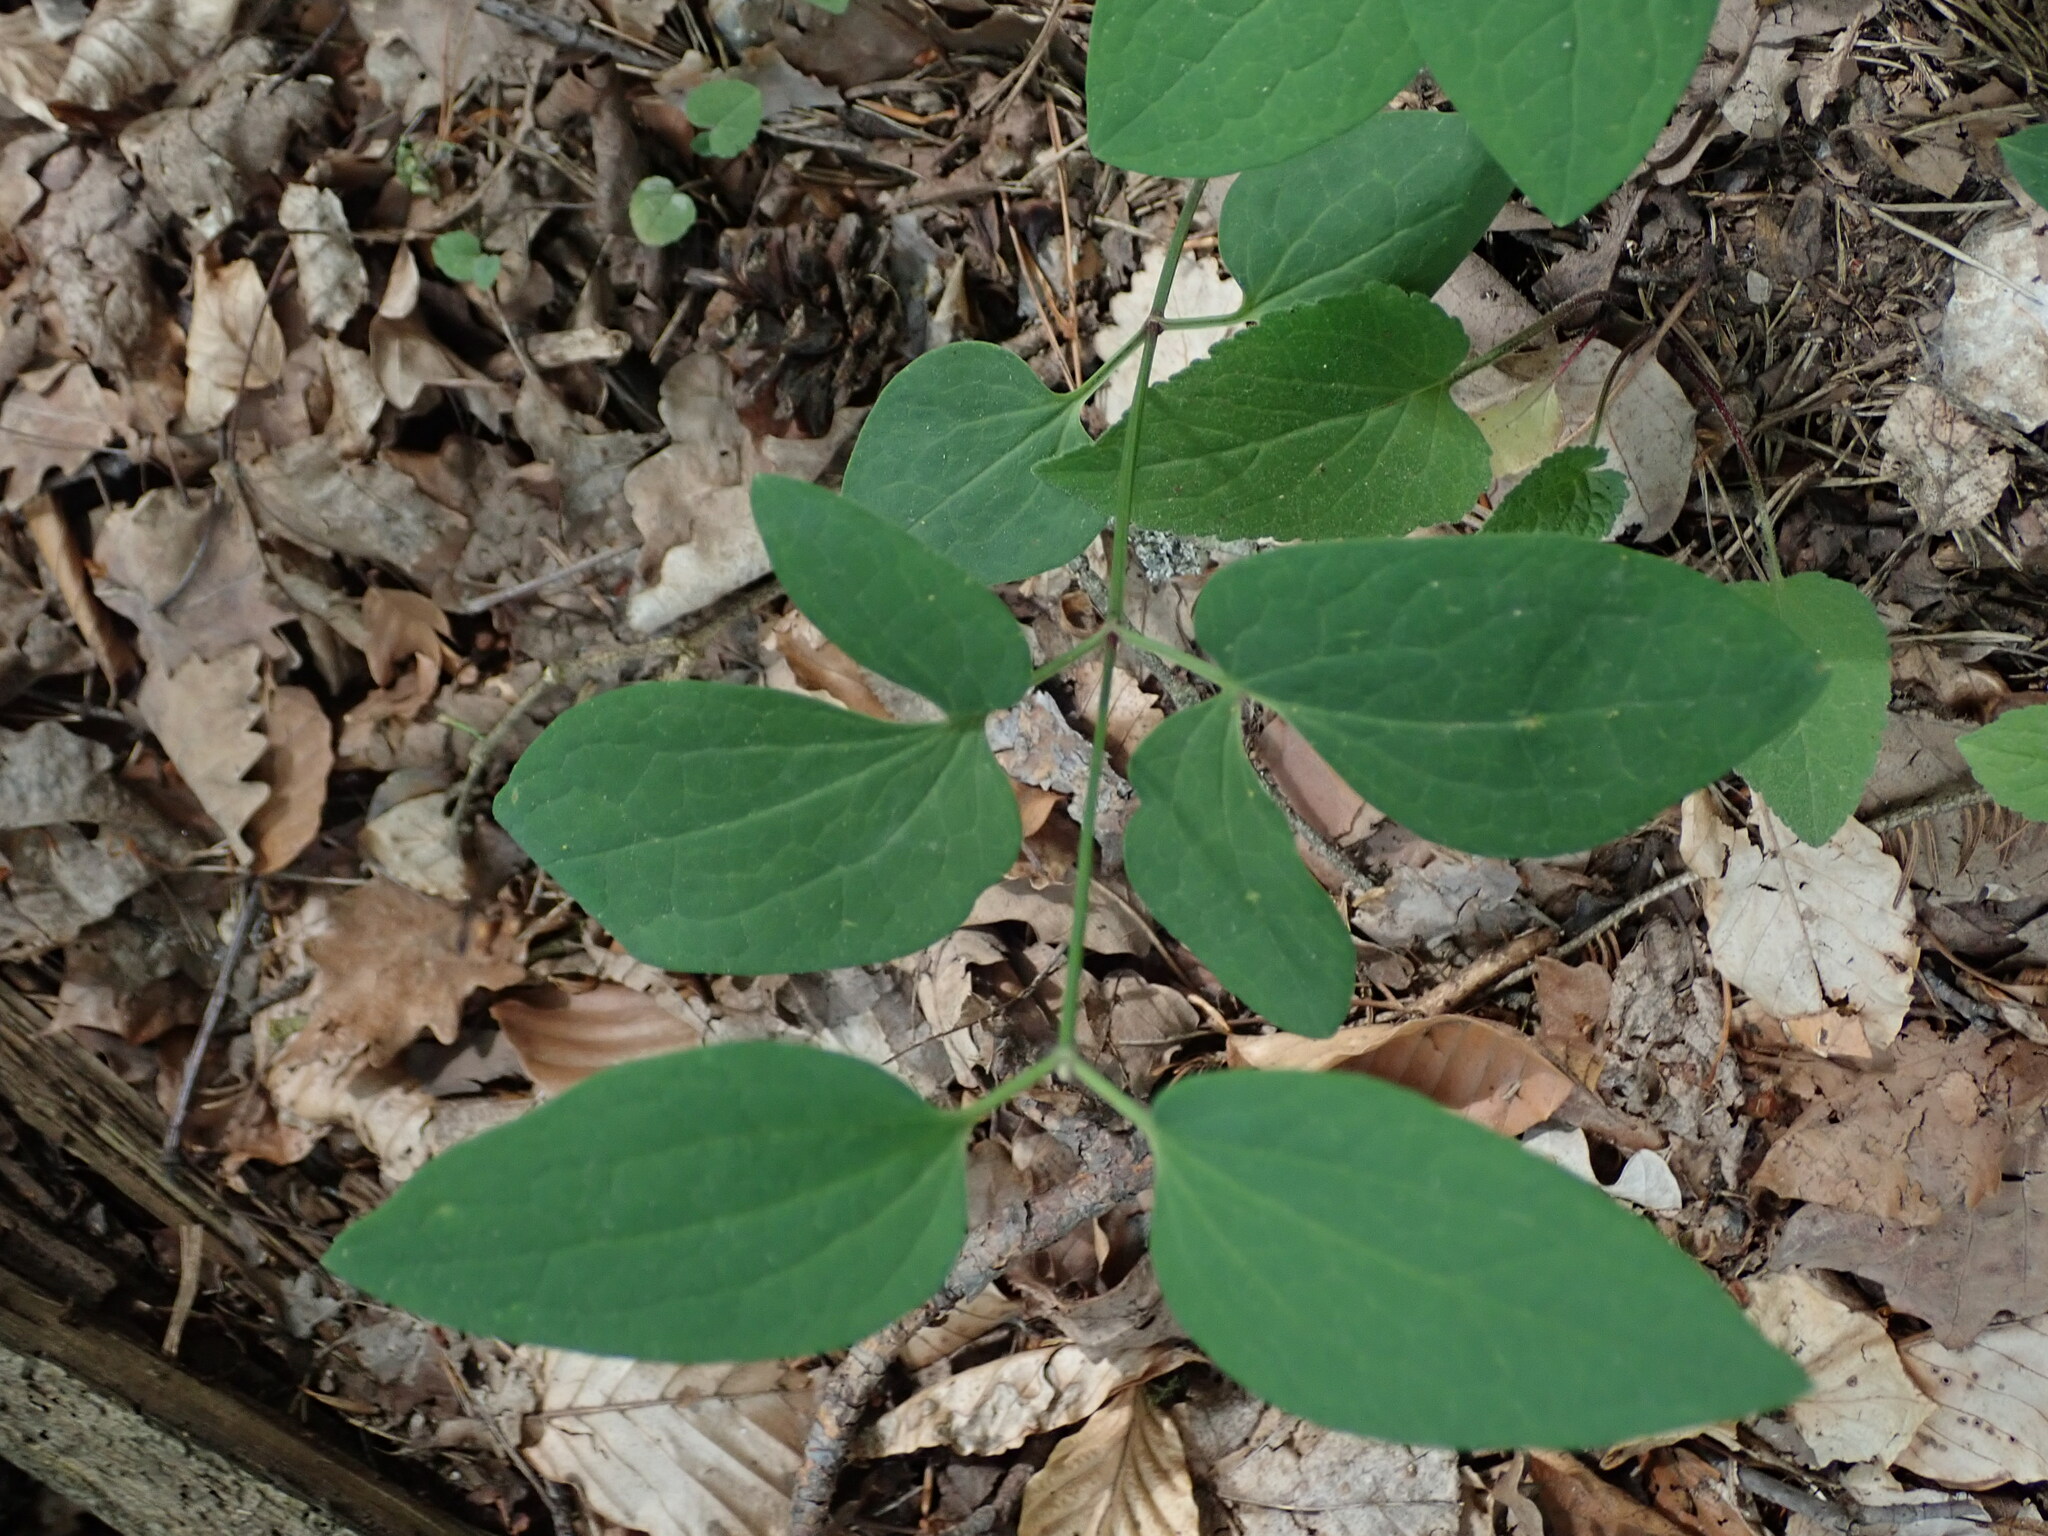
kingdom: Plantae
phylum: Tracheophyta
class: Magnoliopsida
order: Ranunculales
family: Ranunculaceae
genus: Clematis
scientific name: Clematis recta
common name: Ground clematis
